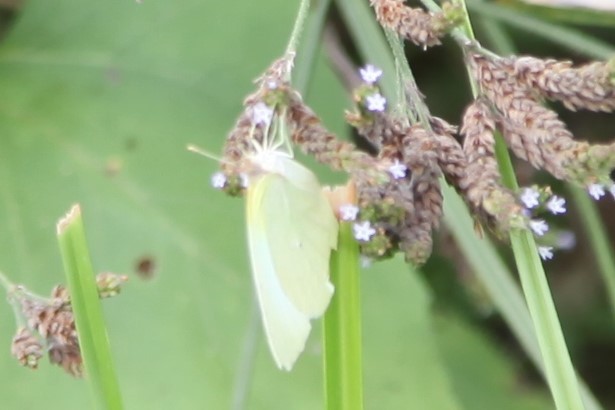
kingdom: Animalia
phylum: Arthropoda
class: Insecta
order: Lepidoptera
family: Pieridae
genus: Kricogonia
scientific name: Kricogonia lyside
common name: Guayacan sulphur,
